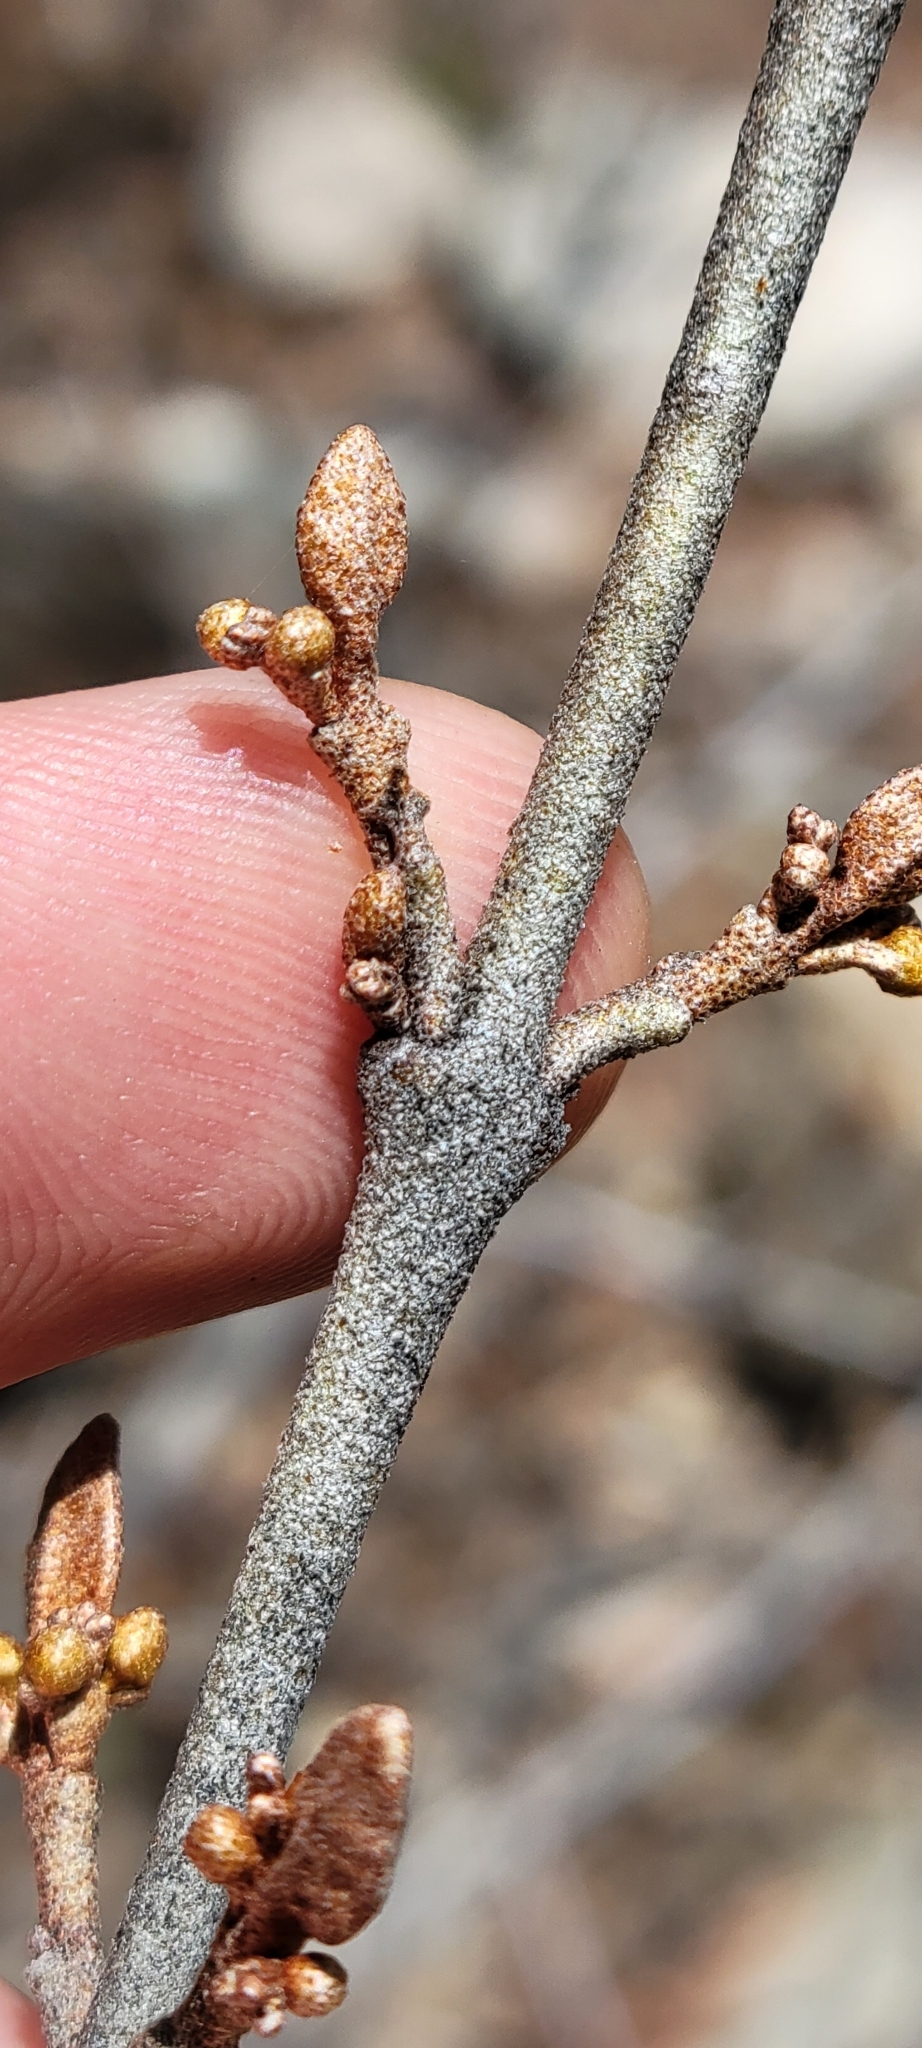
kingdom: Plantae
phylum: Tracheophyta
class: Magnoliopsida
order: Rosales
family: Elaeagnaceae
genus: Shepherdia
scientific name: Shepherdia canadensis
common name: Soapberry
